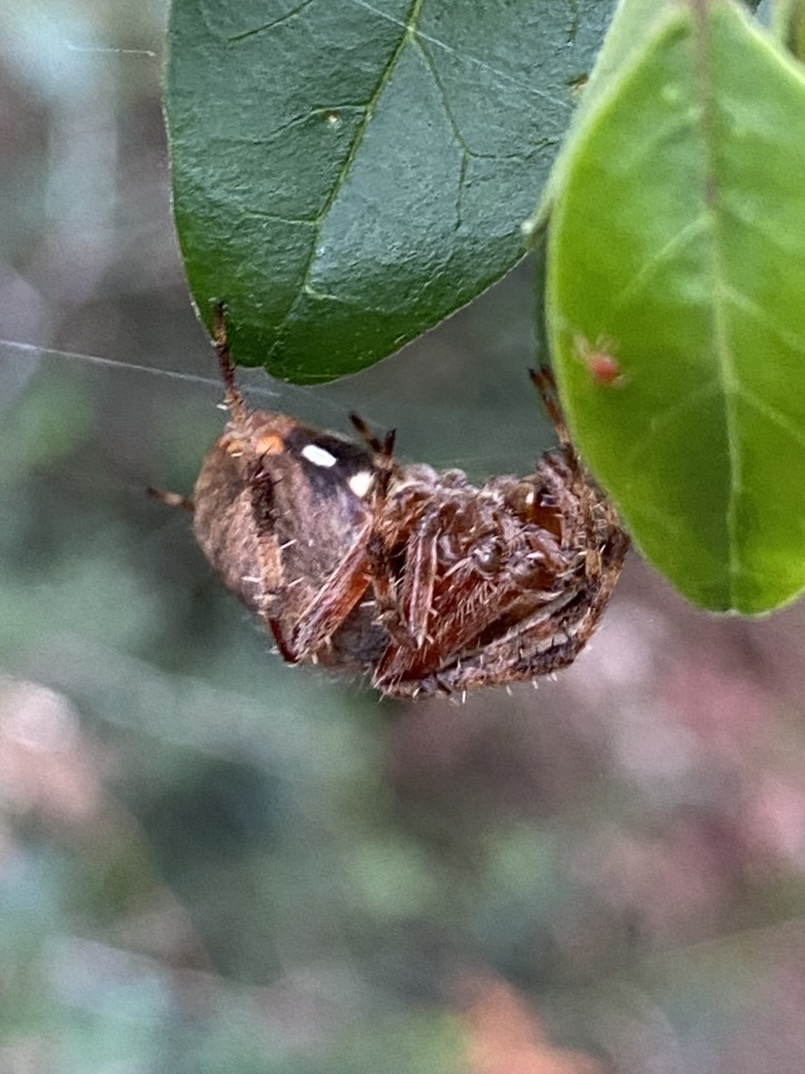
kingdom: Animalia
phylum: Arthropoda
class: Arachnida
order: Araneae
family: Araneidae
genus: Neoscona
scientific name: Neoscona crucifera
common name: Spotted orbweaver
